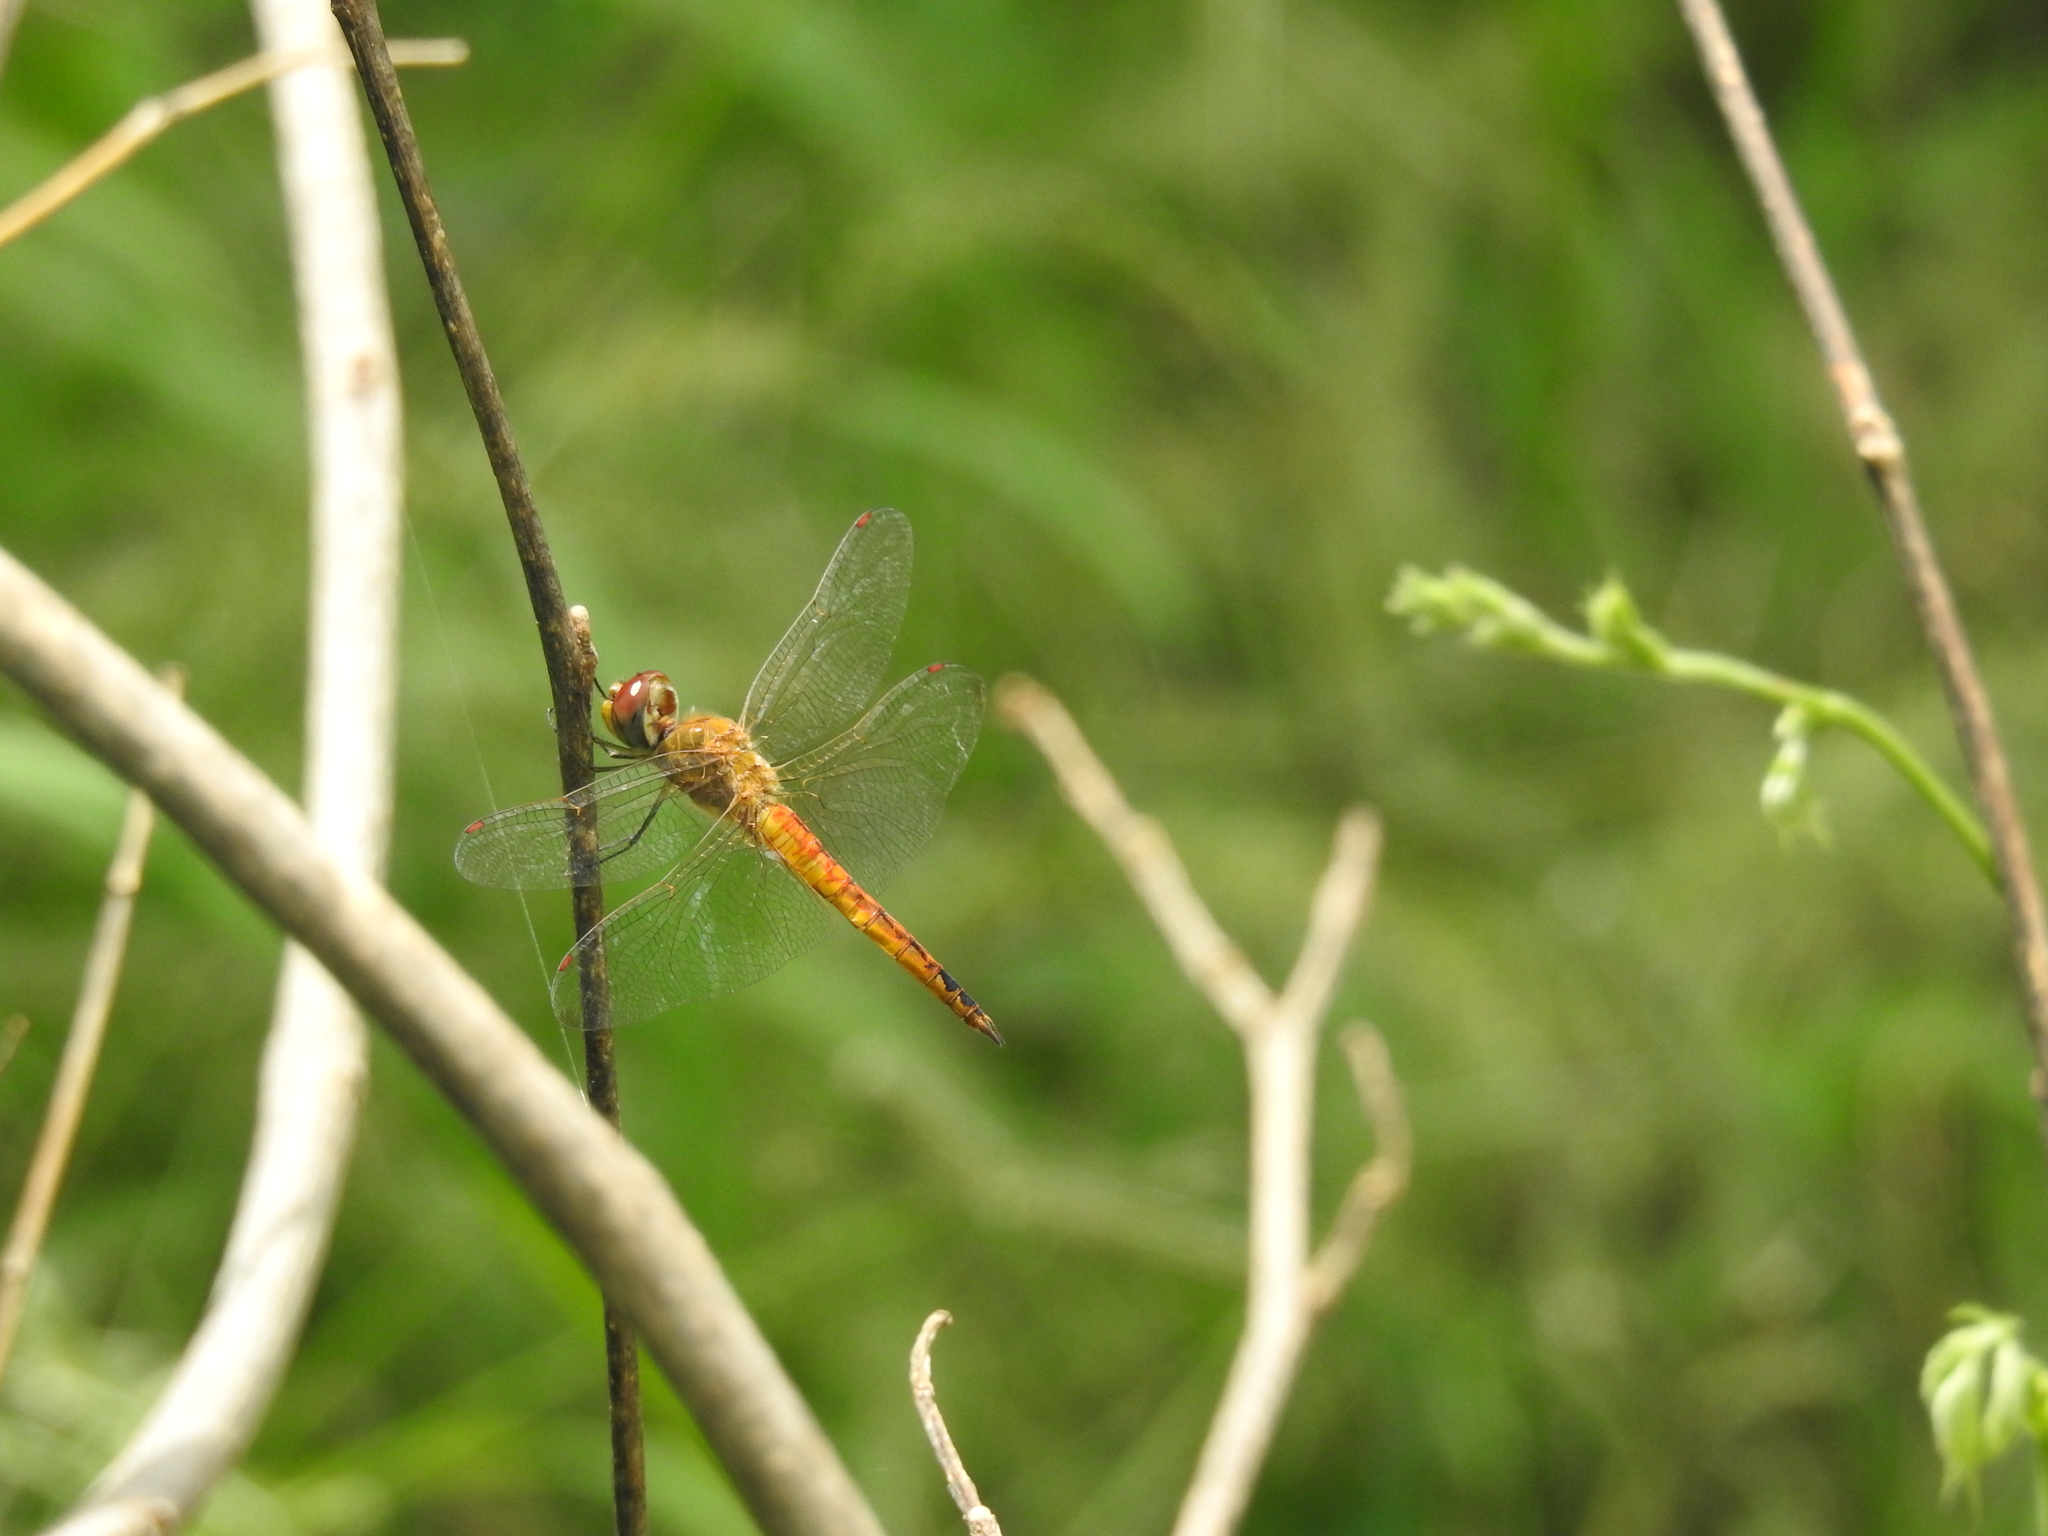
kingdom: Animalia
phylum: Arthropoda
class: Insecta
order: Odonata
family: Libellulidae
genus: Pantala
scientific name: Pantala flavescens
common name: Wandering glider
